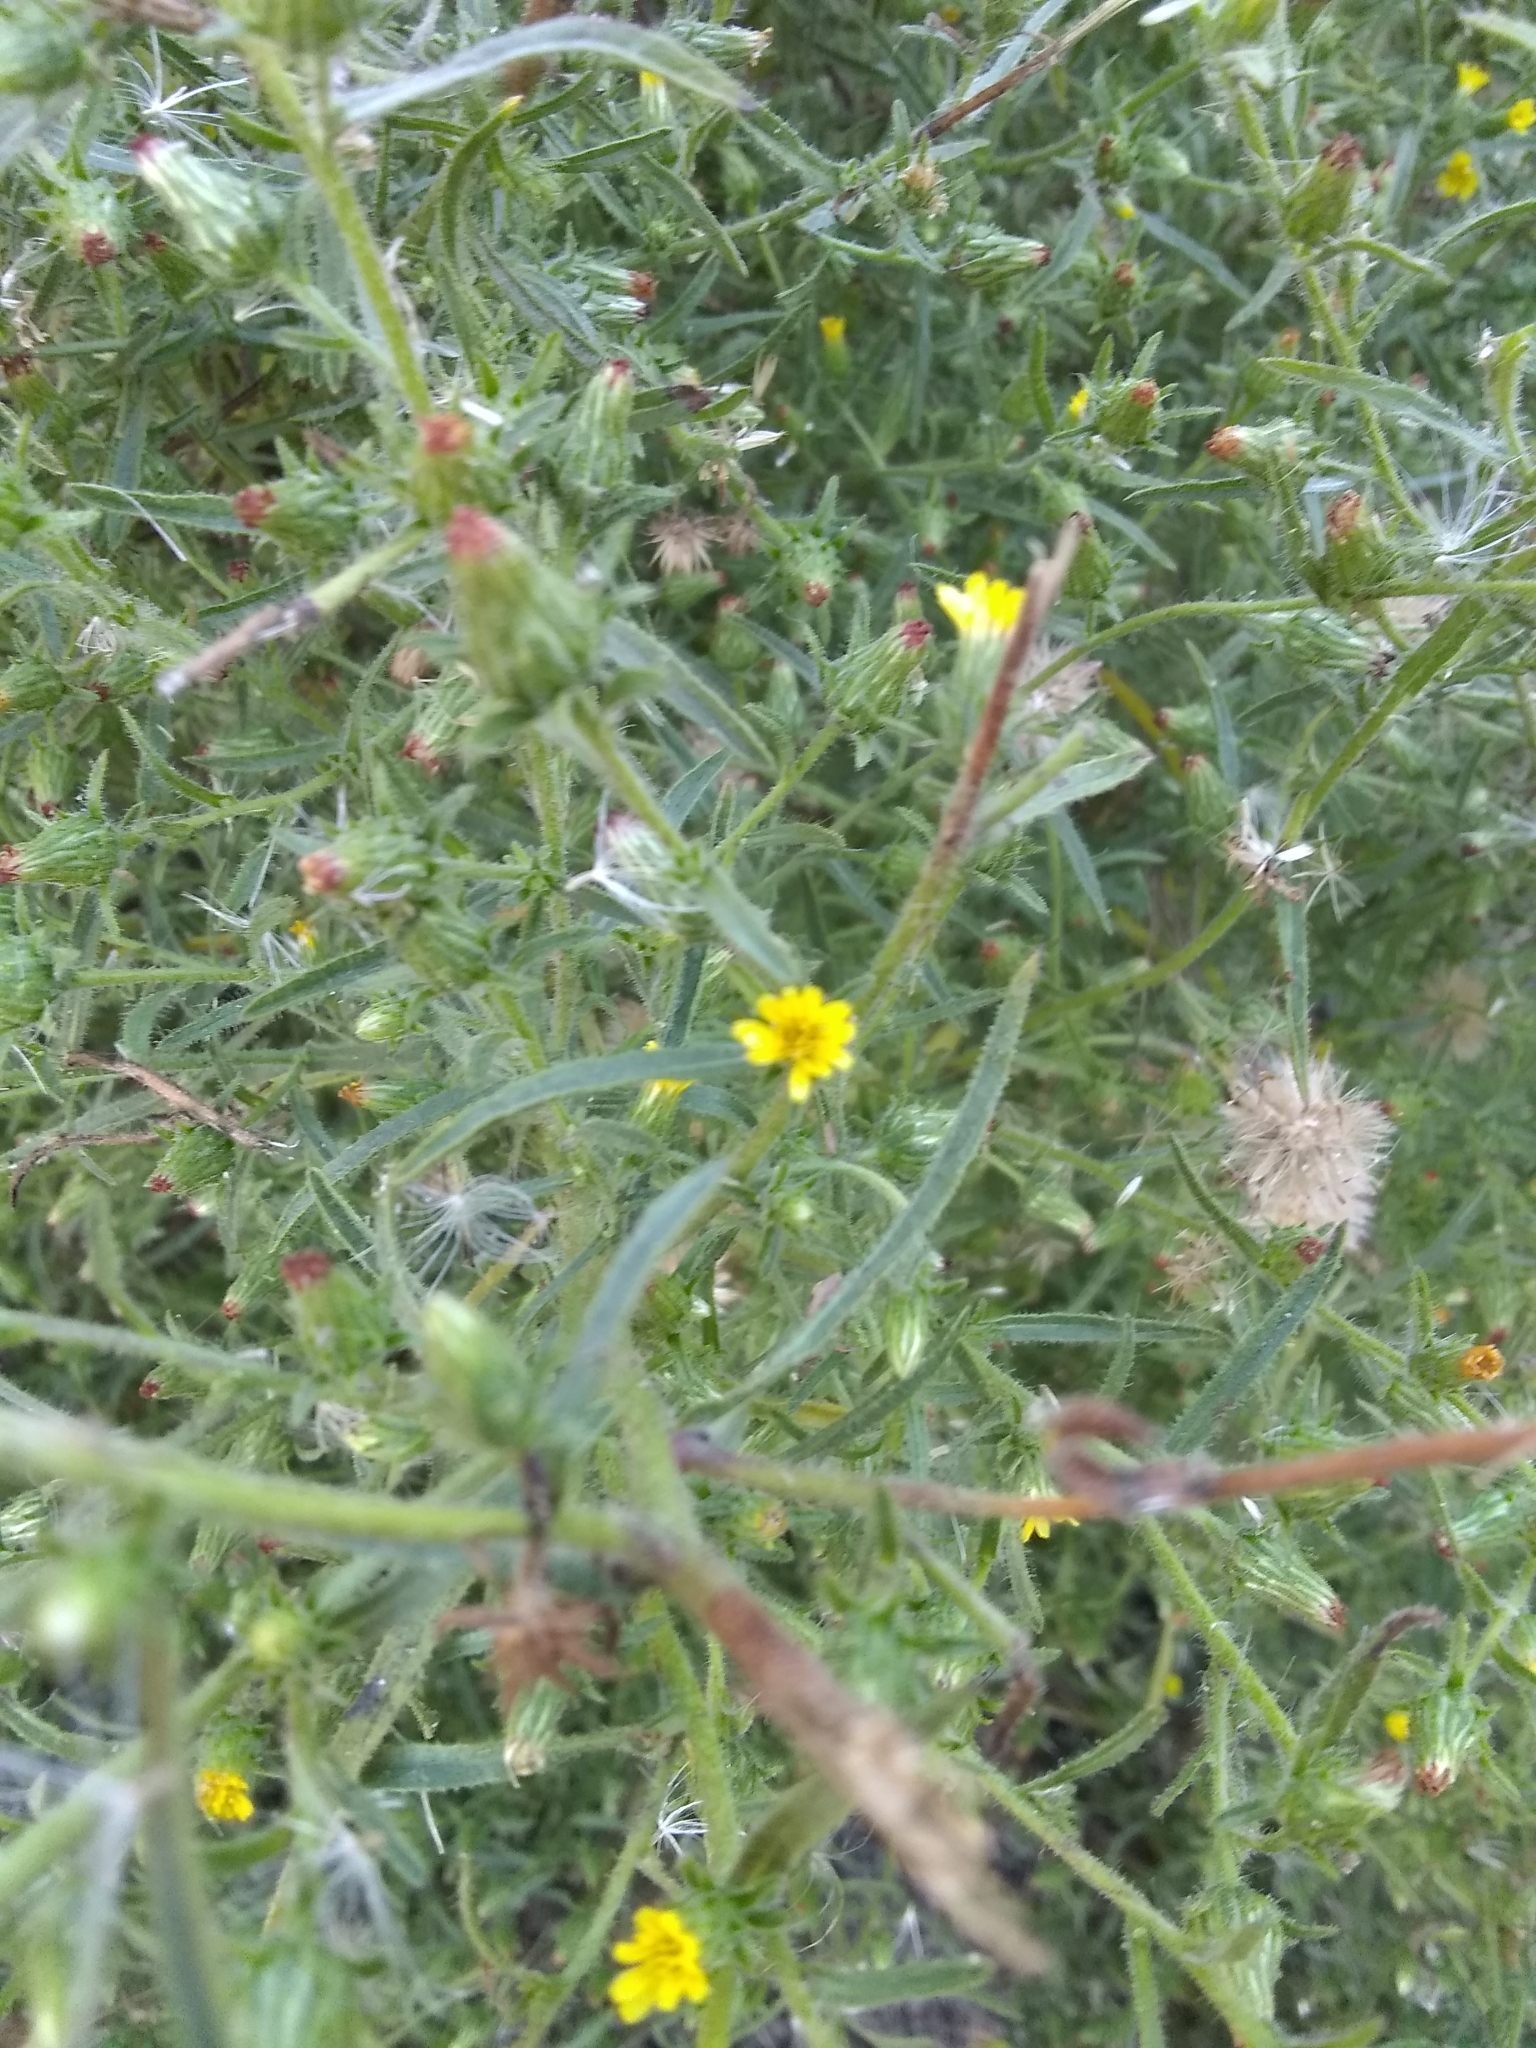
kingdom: Plantae
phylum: Tracheophyta
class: Magnoliopsida
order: Asterales
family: Asteraceae
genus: Dittrichia
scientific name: Dittrichia graveolens
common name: Stinking fleabane
